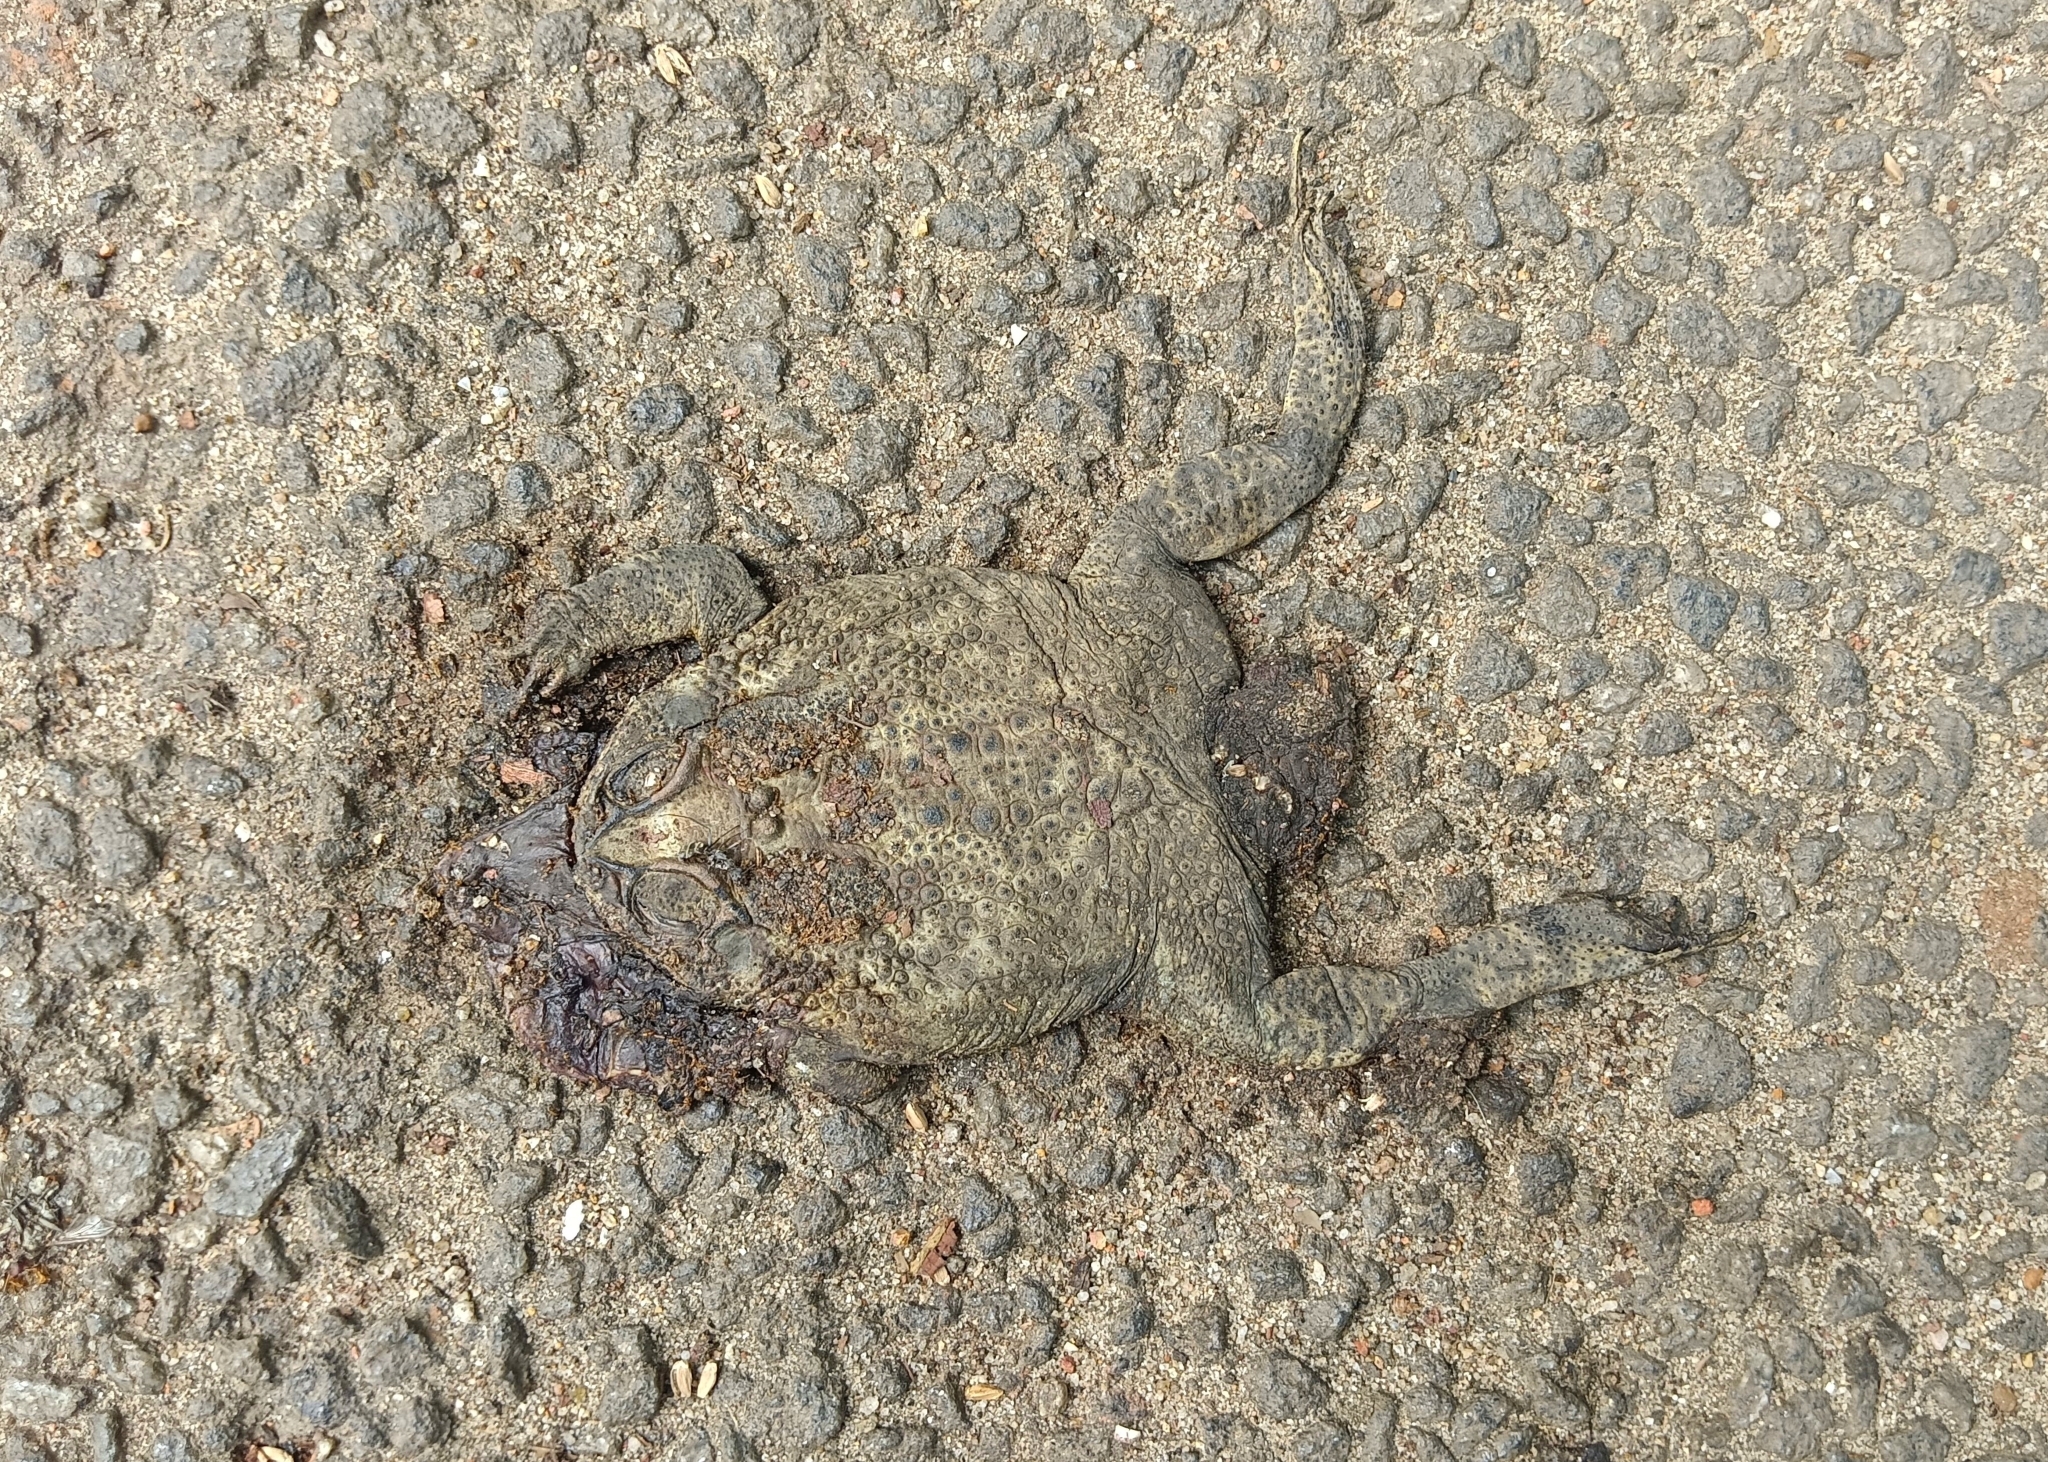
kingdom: Animalia
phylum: Chordata
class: Amphibia
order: Anura
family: Bufonidae
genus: Duttaphrynus
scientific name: Duttaphrynus melanostictus
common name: Common sunda toad
